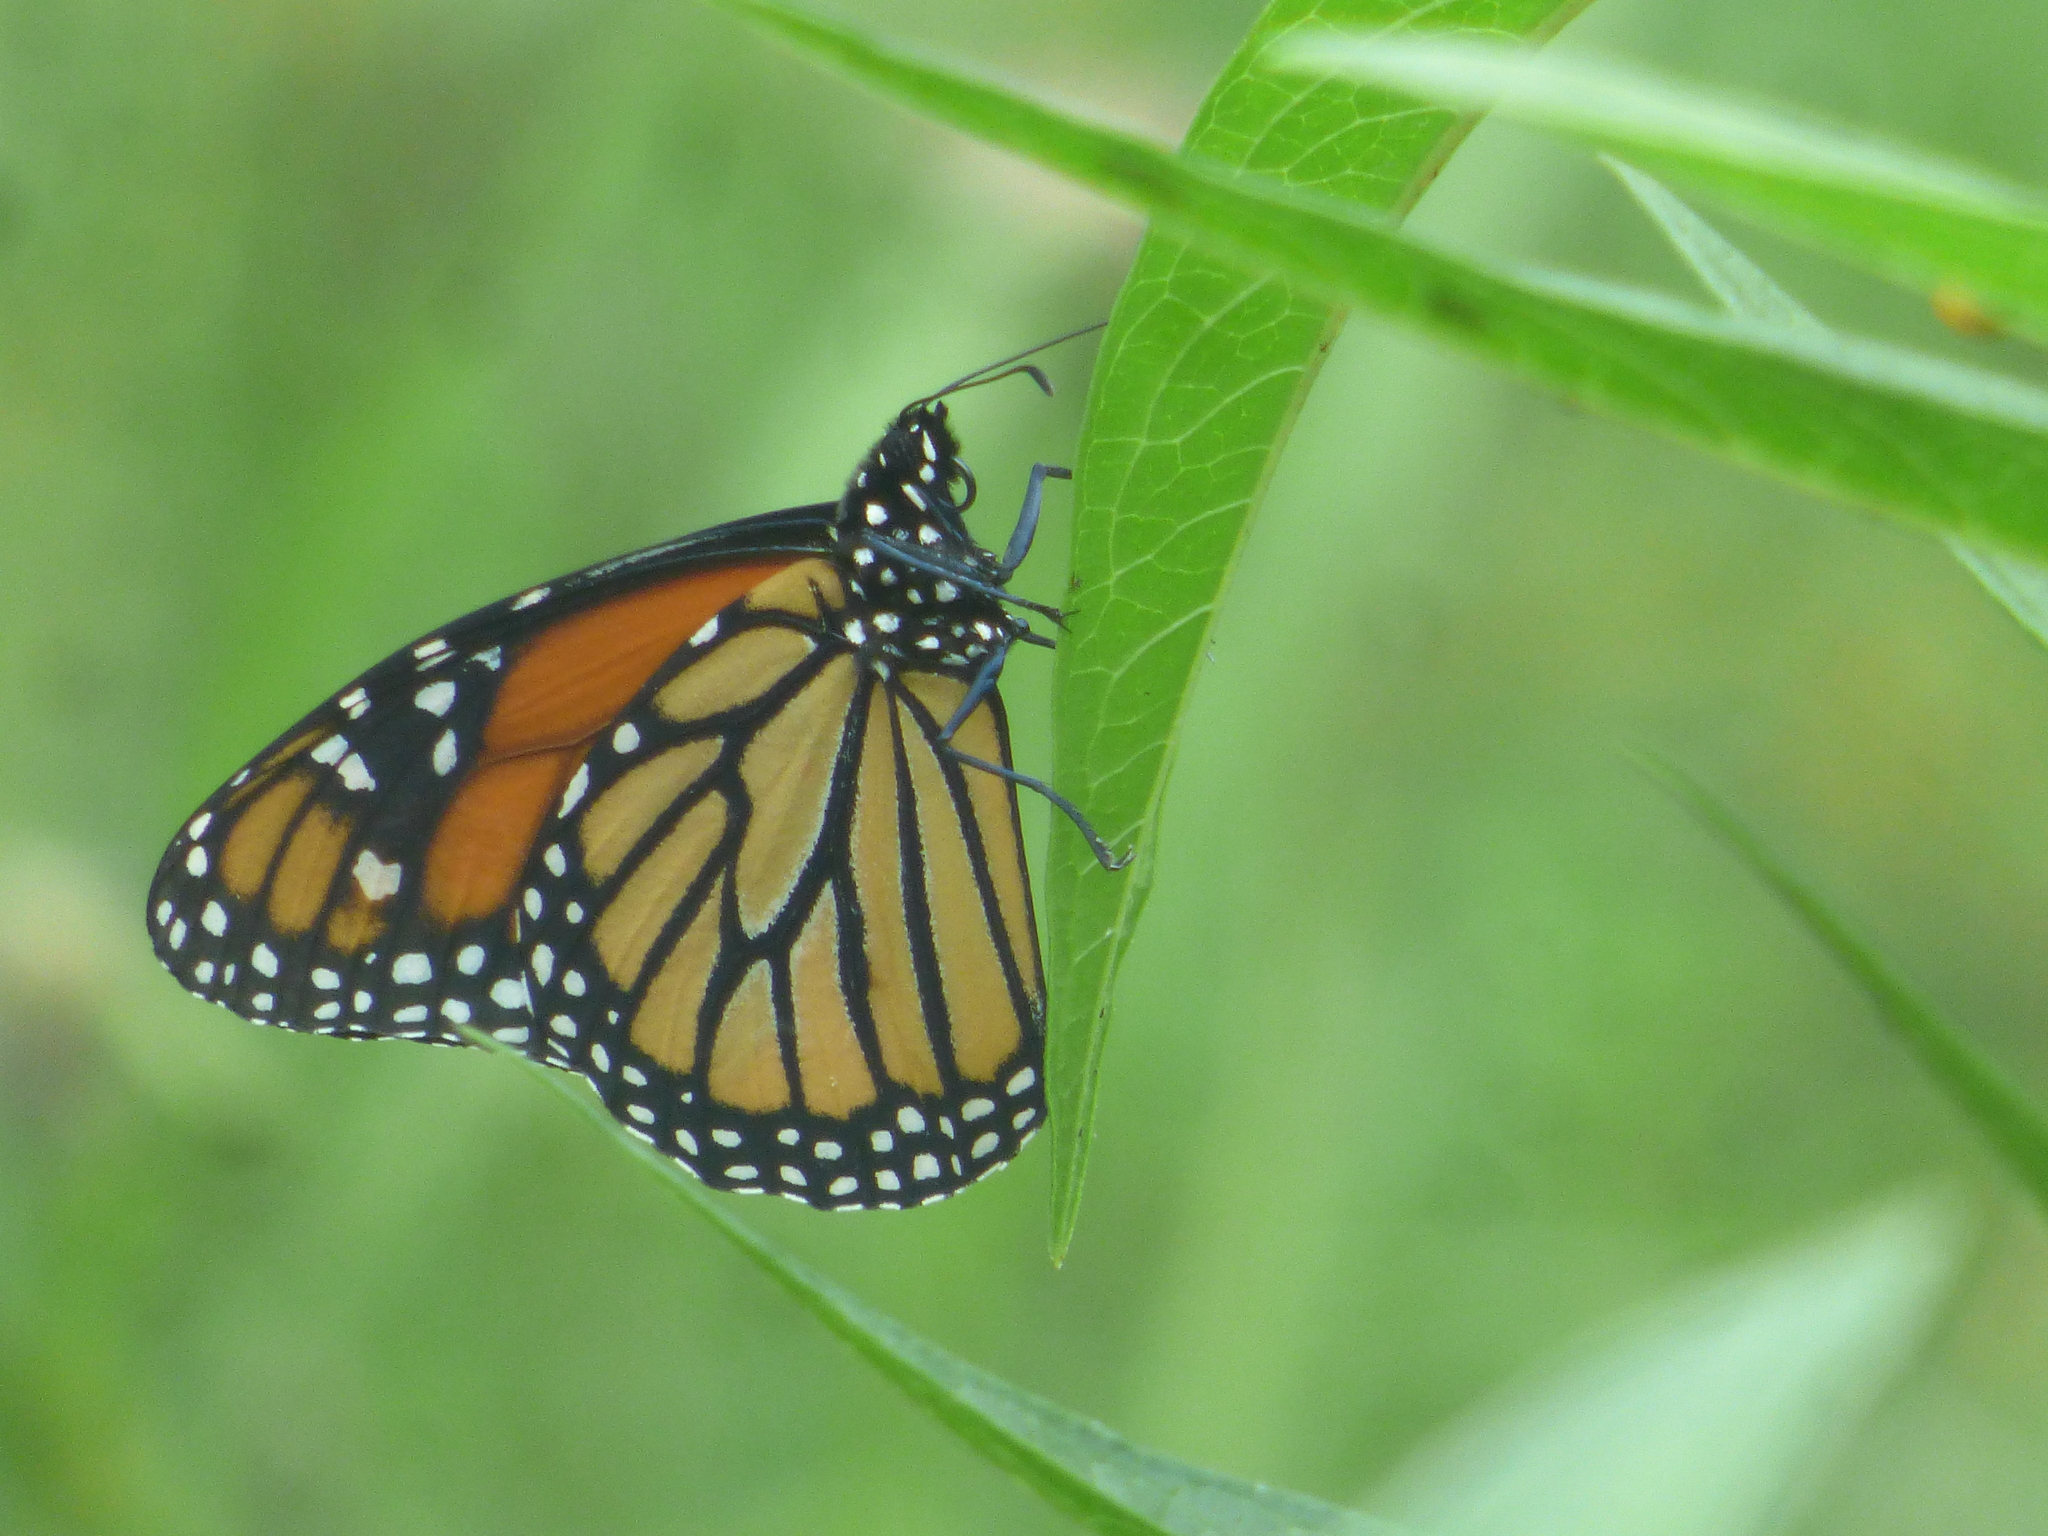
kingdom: Animalia
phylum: Arthropoda
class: Insecta
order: Lepidoptera
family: Nymphalidae
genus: Danaus
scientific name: Danaus plexippus
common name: Monarch
